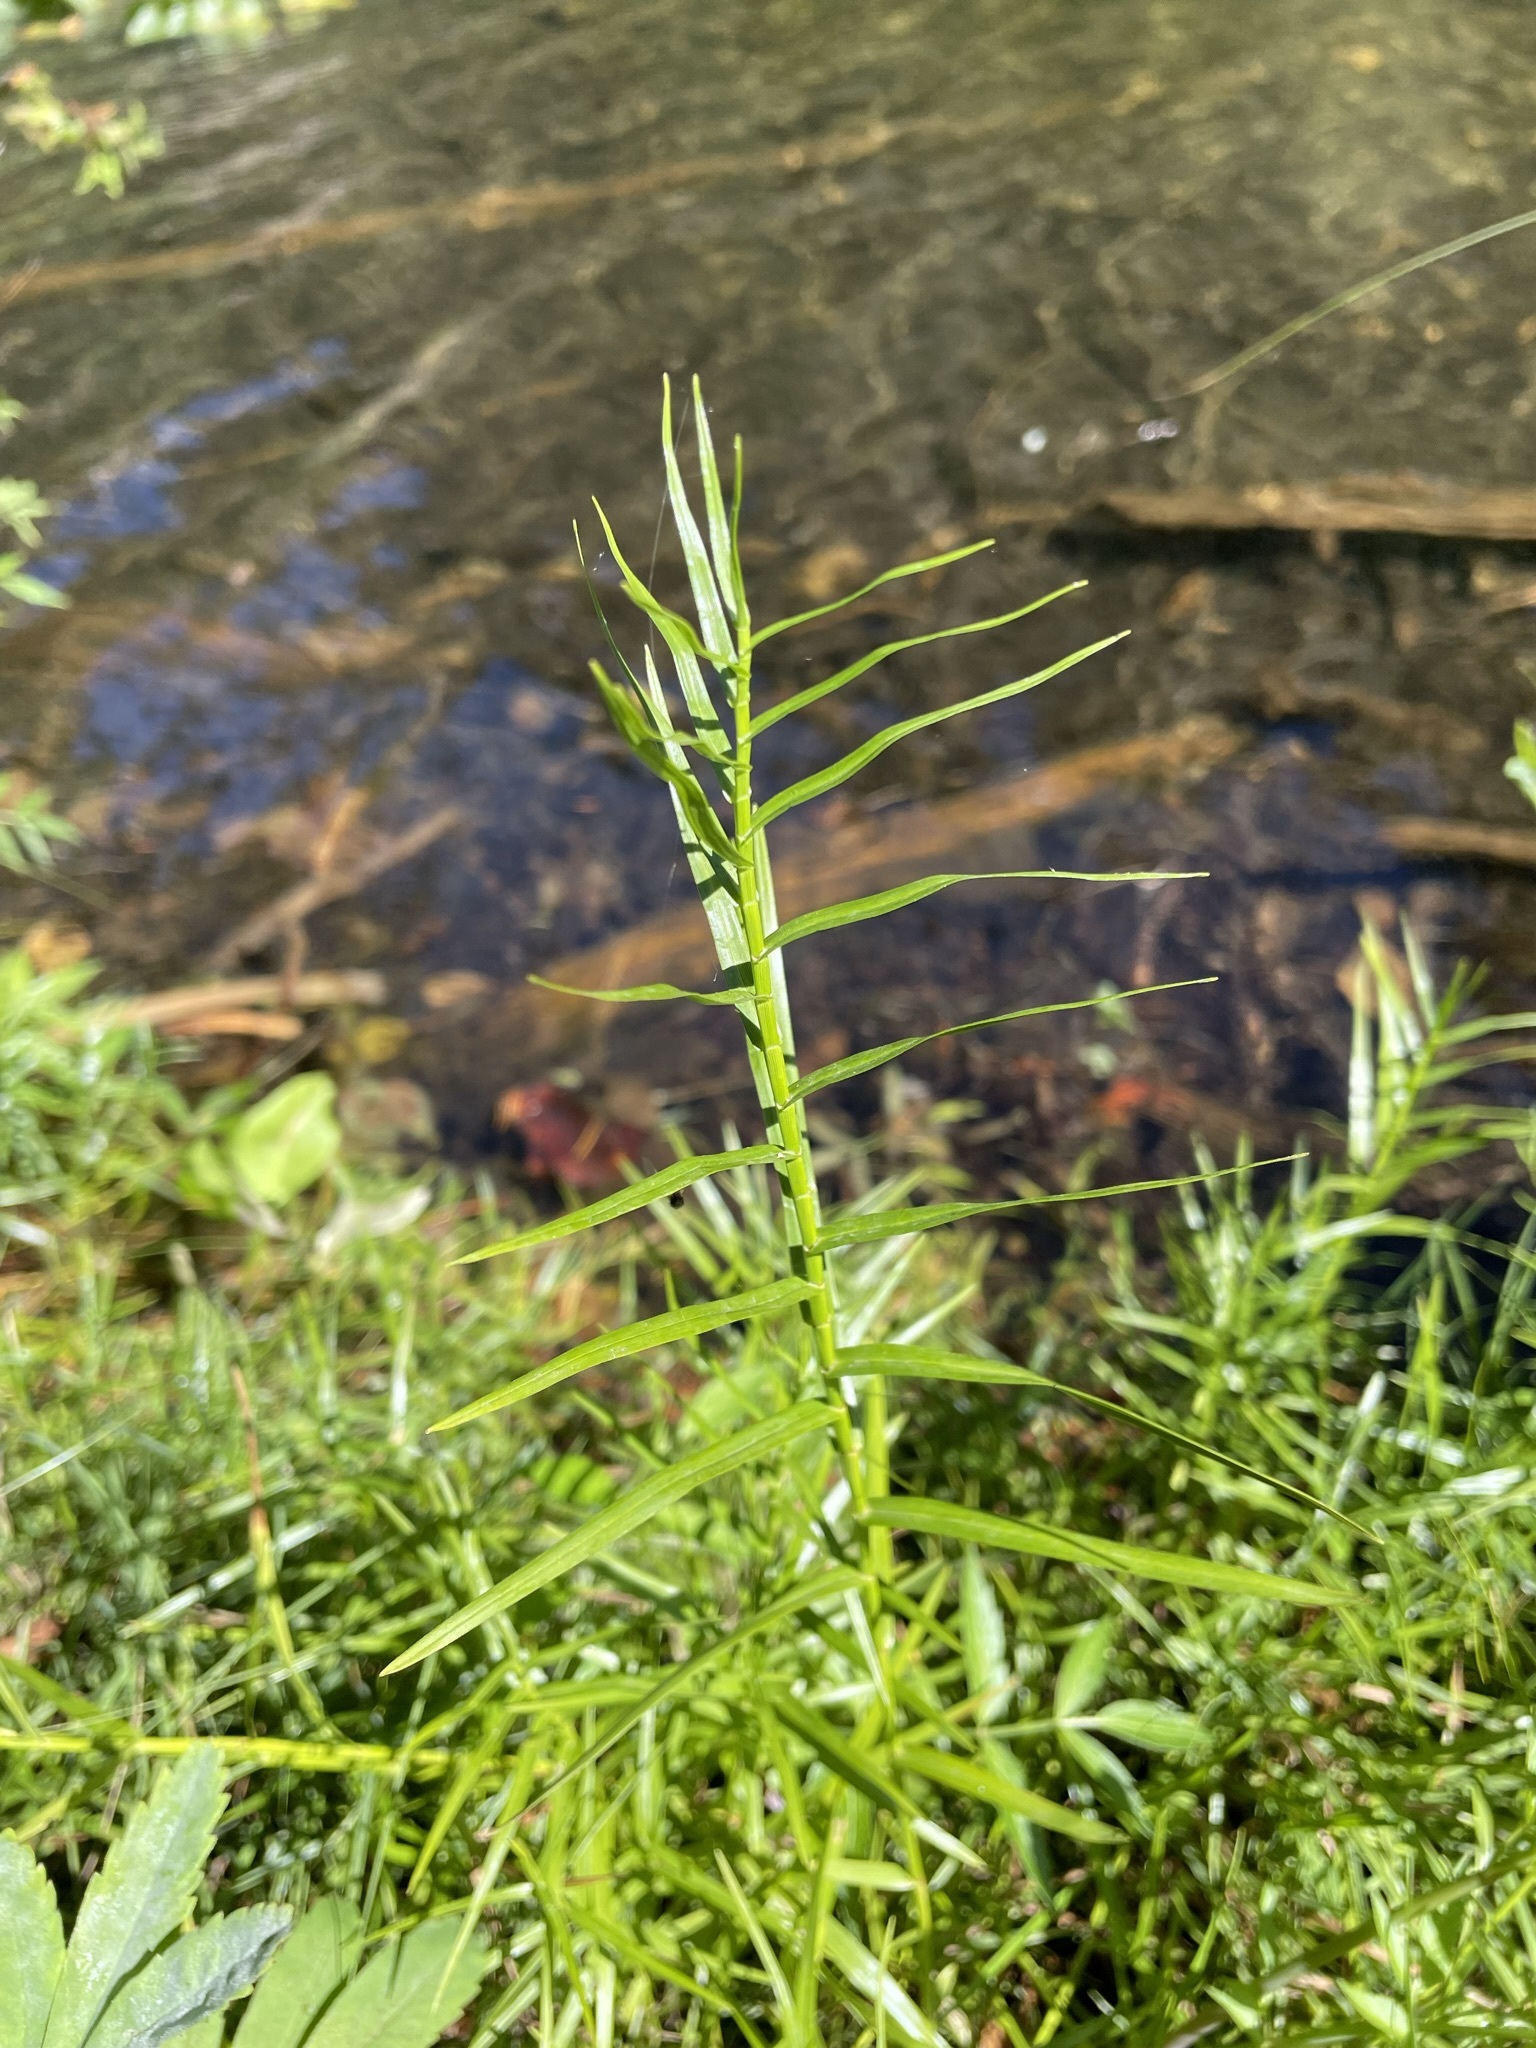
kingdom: Plantae
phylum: Tracheophyta
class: Liliopsida
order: Poales
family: Cyperaceae
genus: Dulichium
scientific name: Dulichium arundinaceum
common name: Three-way sedge
